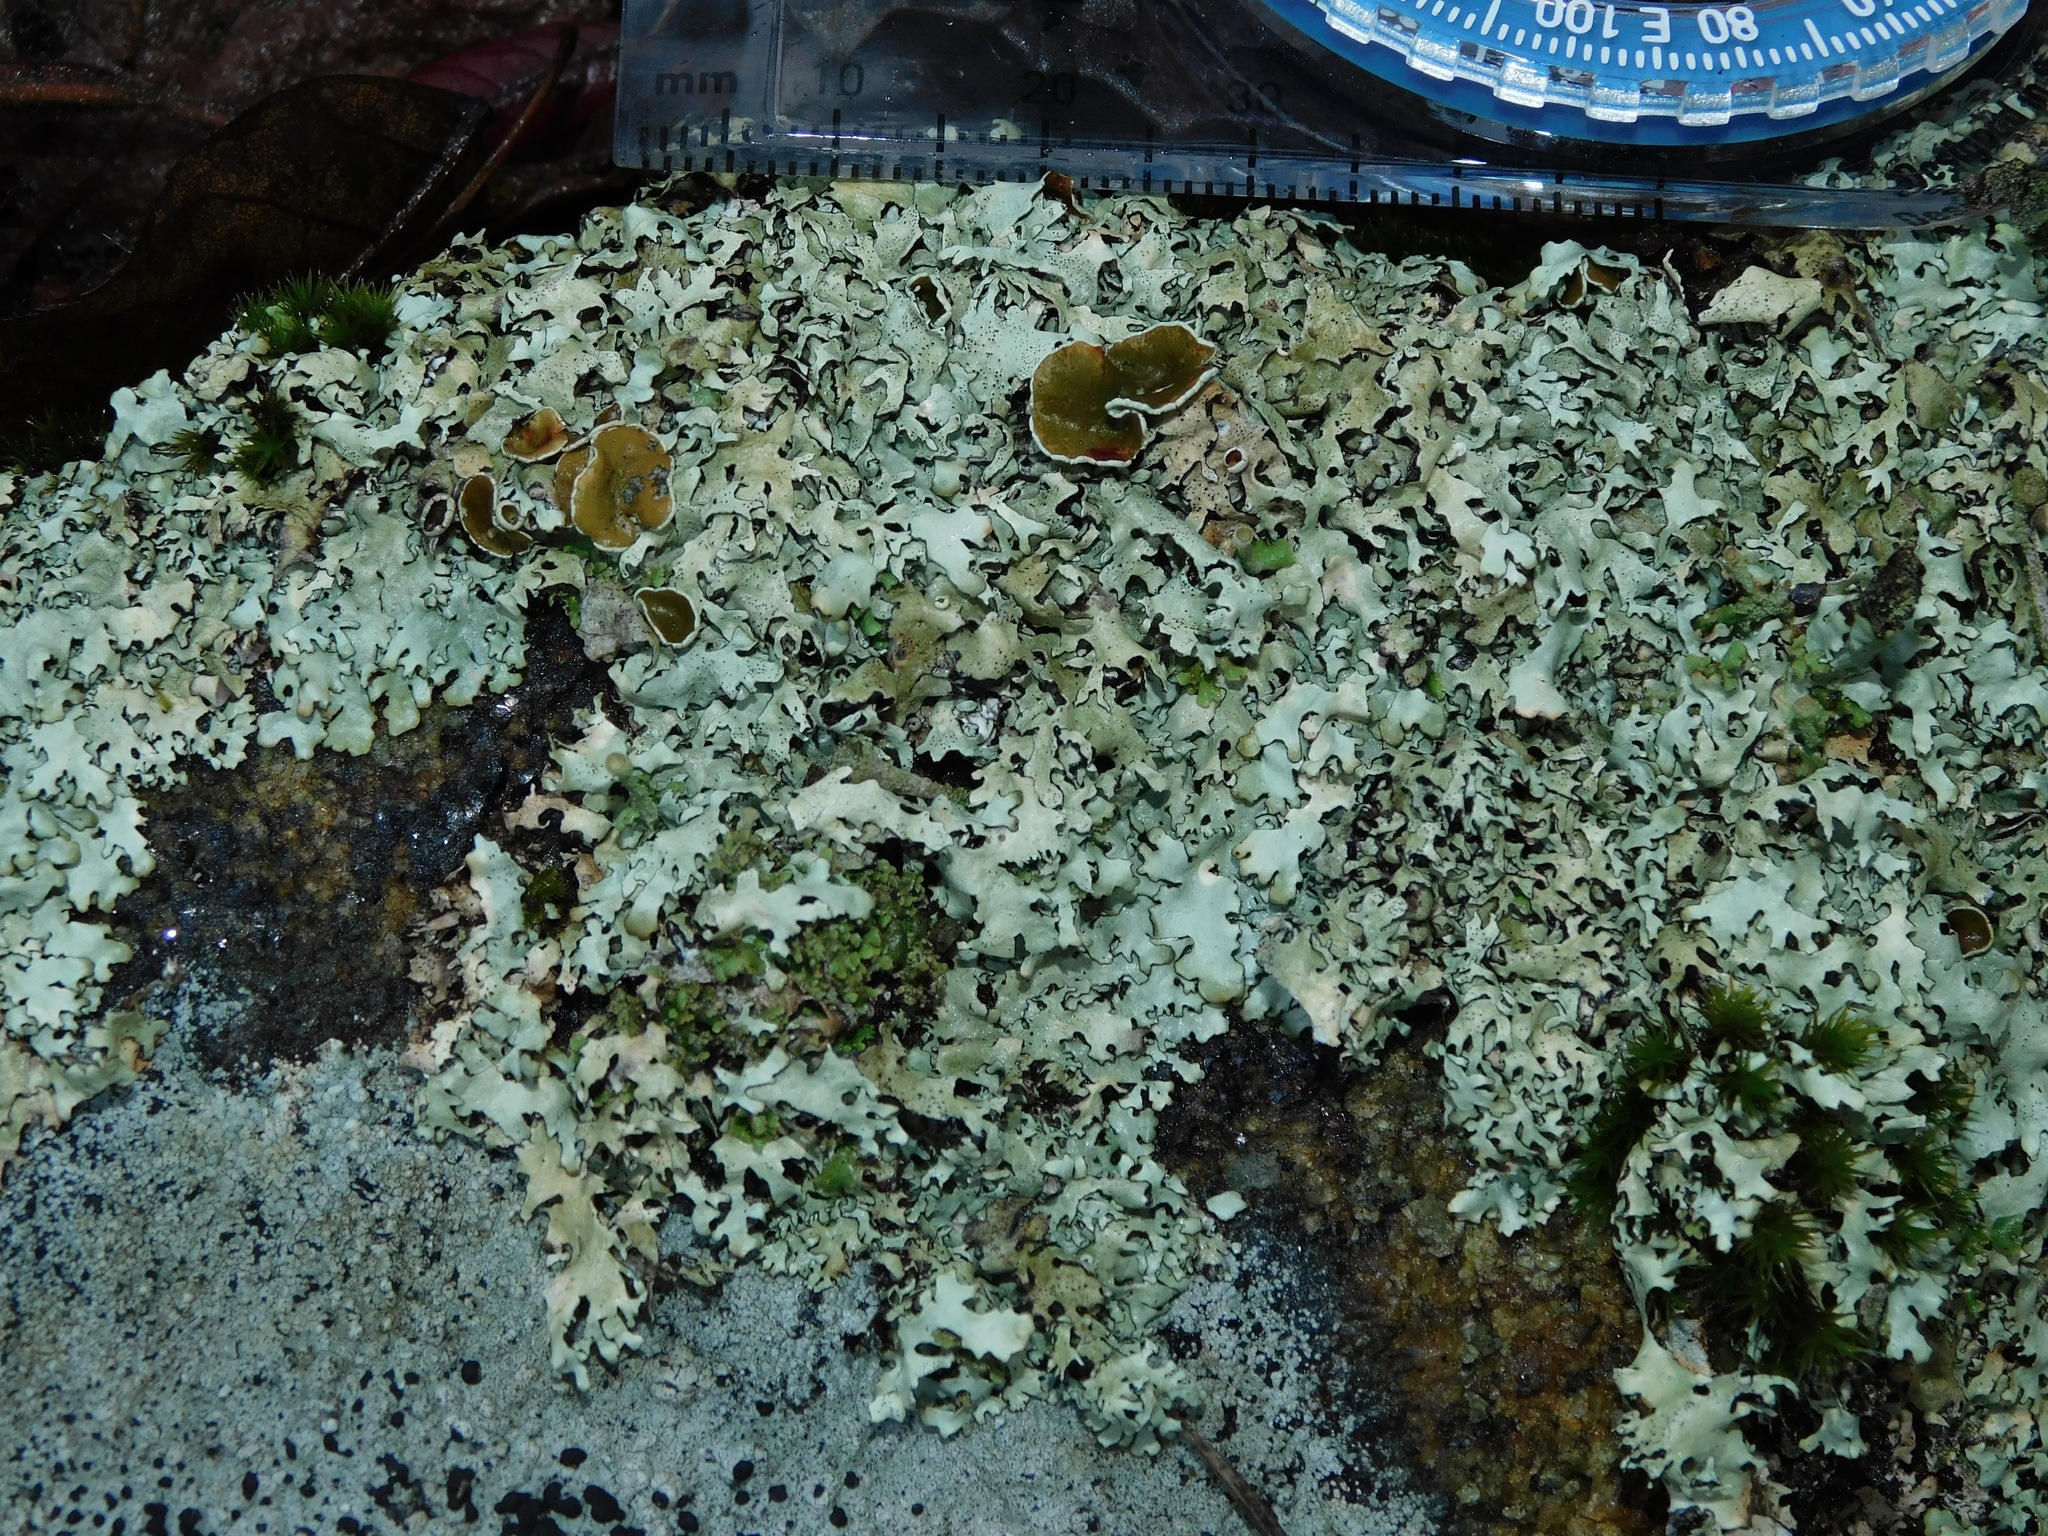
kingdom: Fungi
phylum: Ascomycota
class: Lecanoromycetes
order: Lecanorales
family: Parmeliaceae
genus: Xanthoparmelia
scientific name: Xanthoparmelia conspersa
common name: Peppered rock shield
